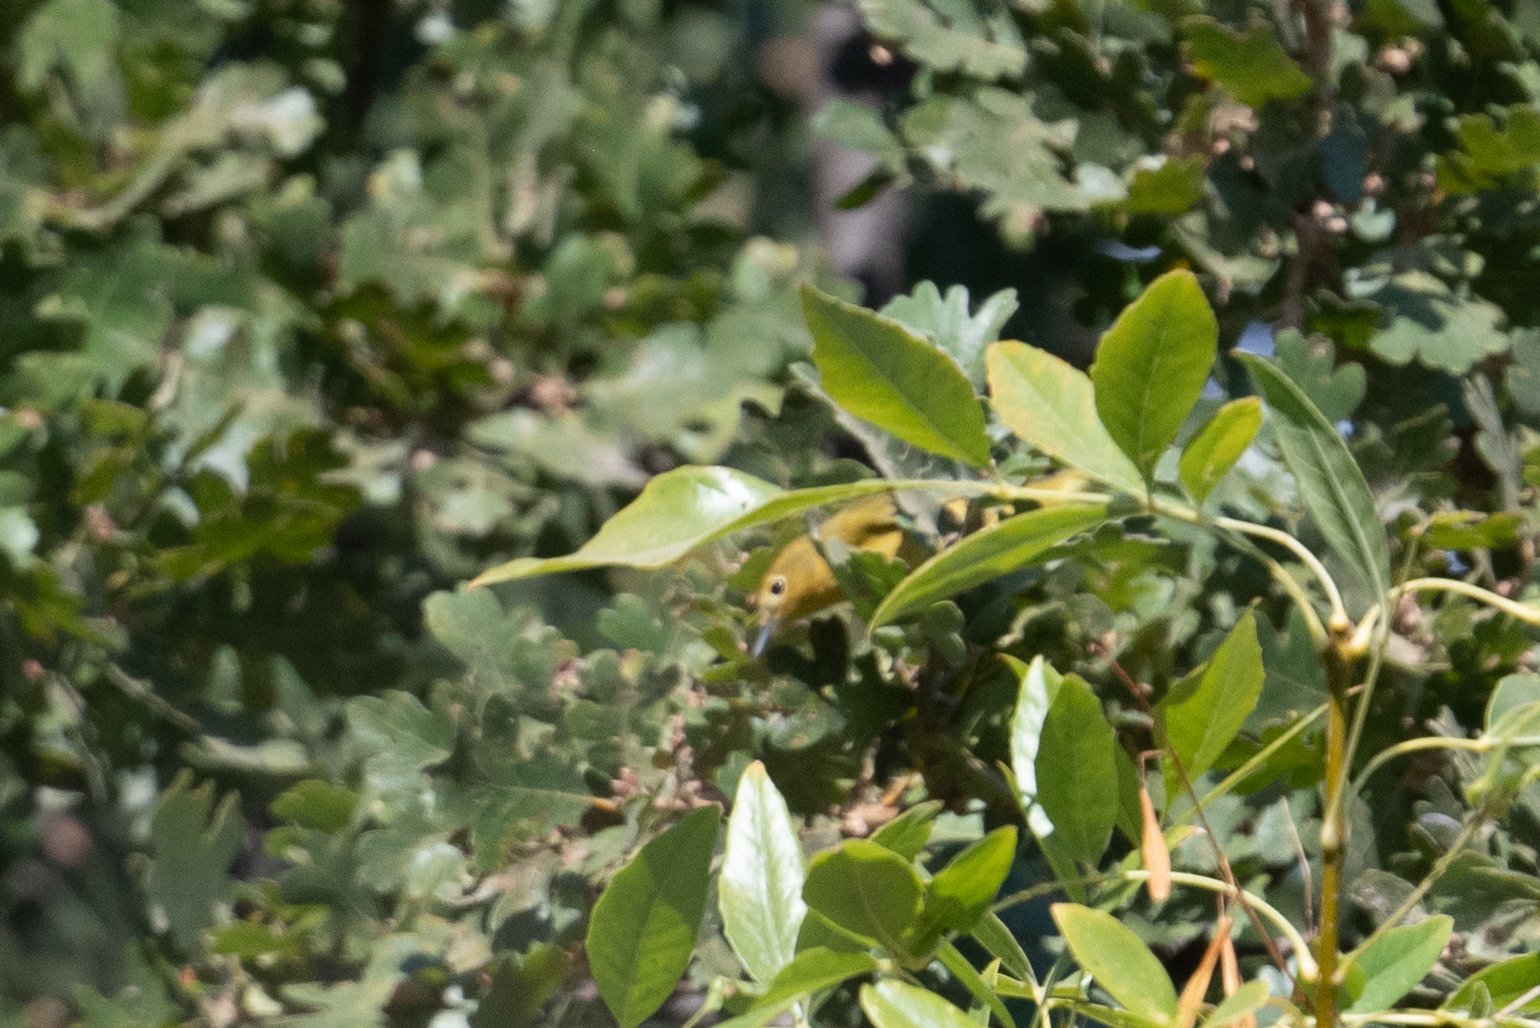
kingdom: Animalia
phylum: Chordata
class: Aves
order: Passeriformes
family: Parulidae
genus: Cardellina
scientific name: Cardellina pusilla
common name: Wilson's warbler
